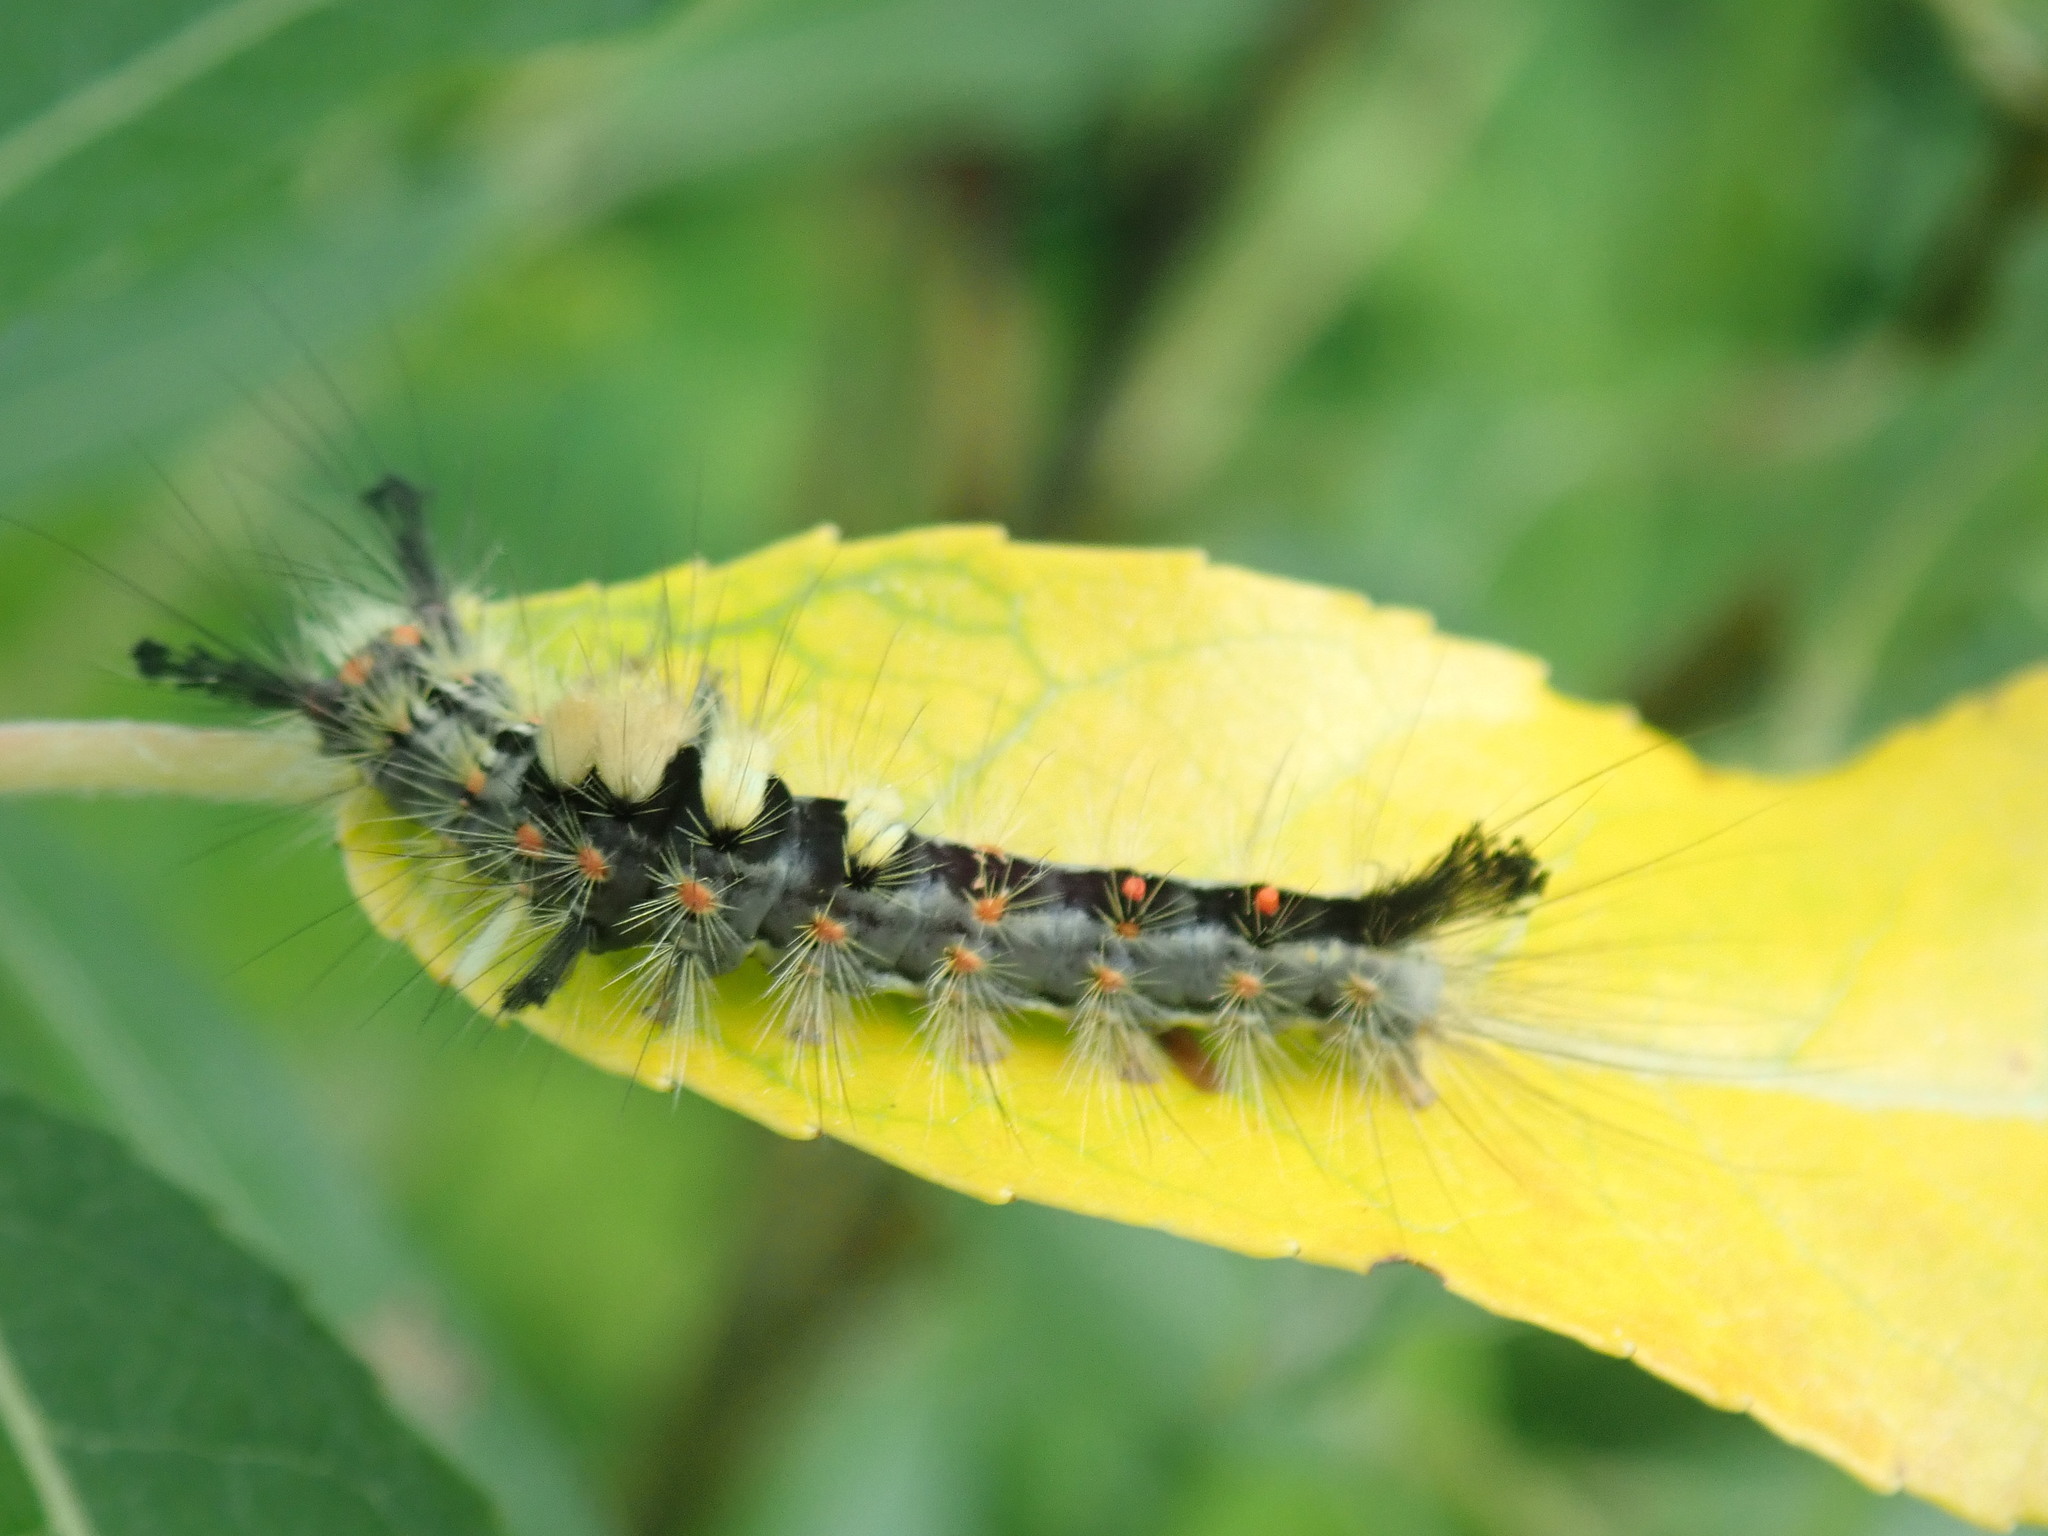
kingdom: Animalia
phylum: Arthropoda
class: Insecta
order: Lepidoptera
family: Erebidae
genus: Orgyia
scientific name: Orgyia antiqua
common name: Vapourer
